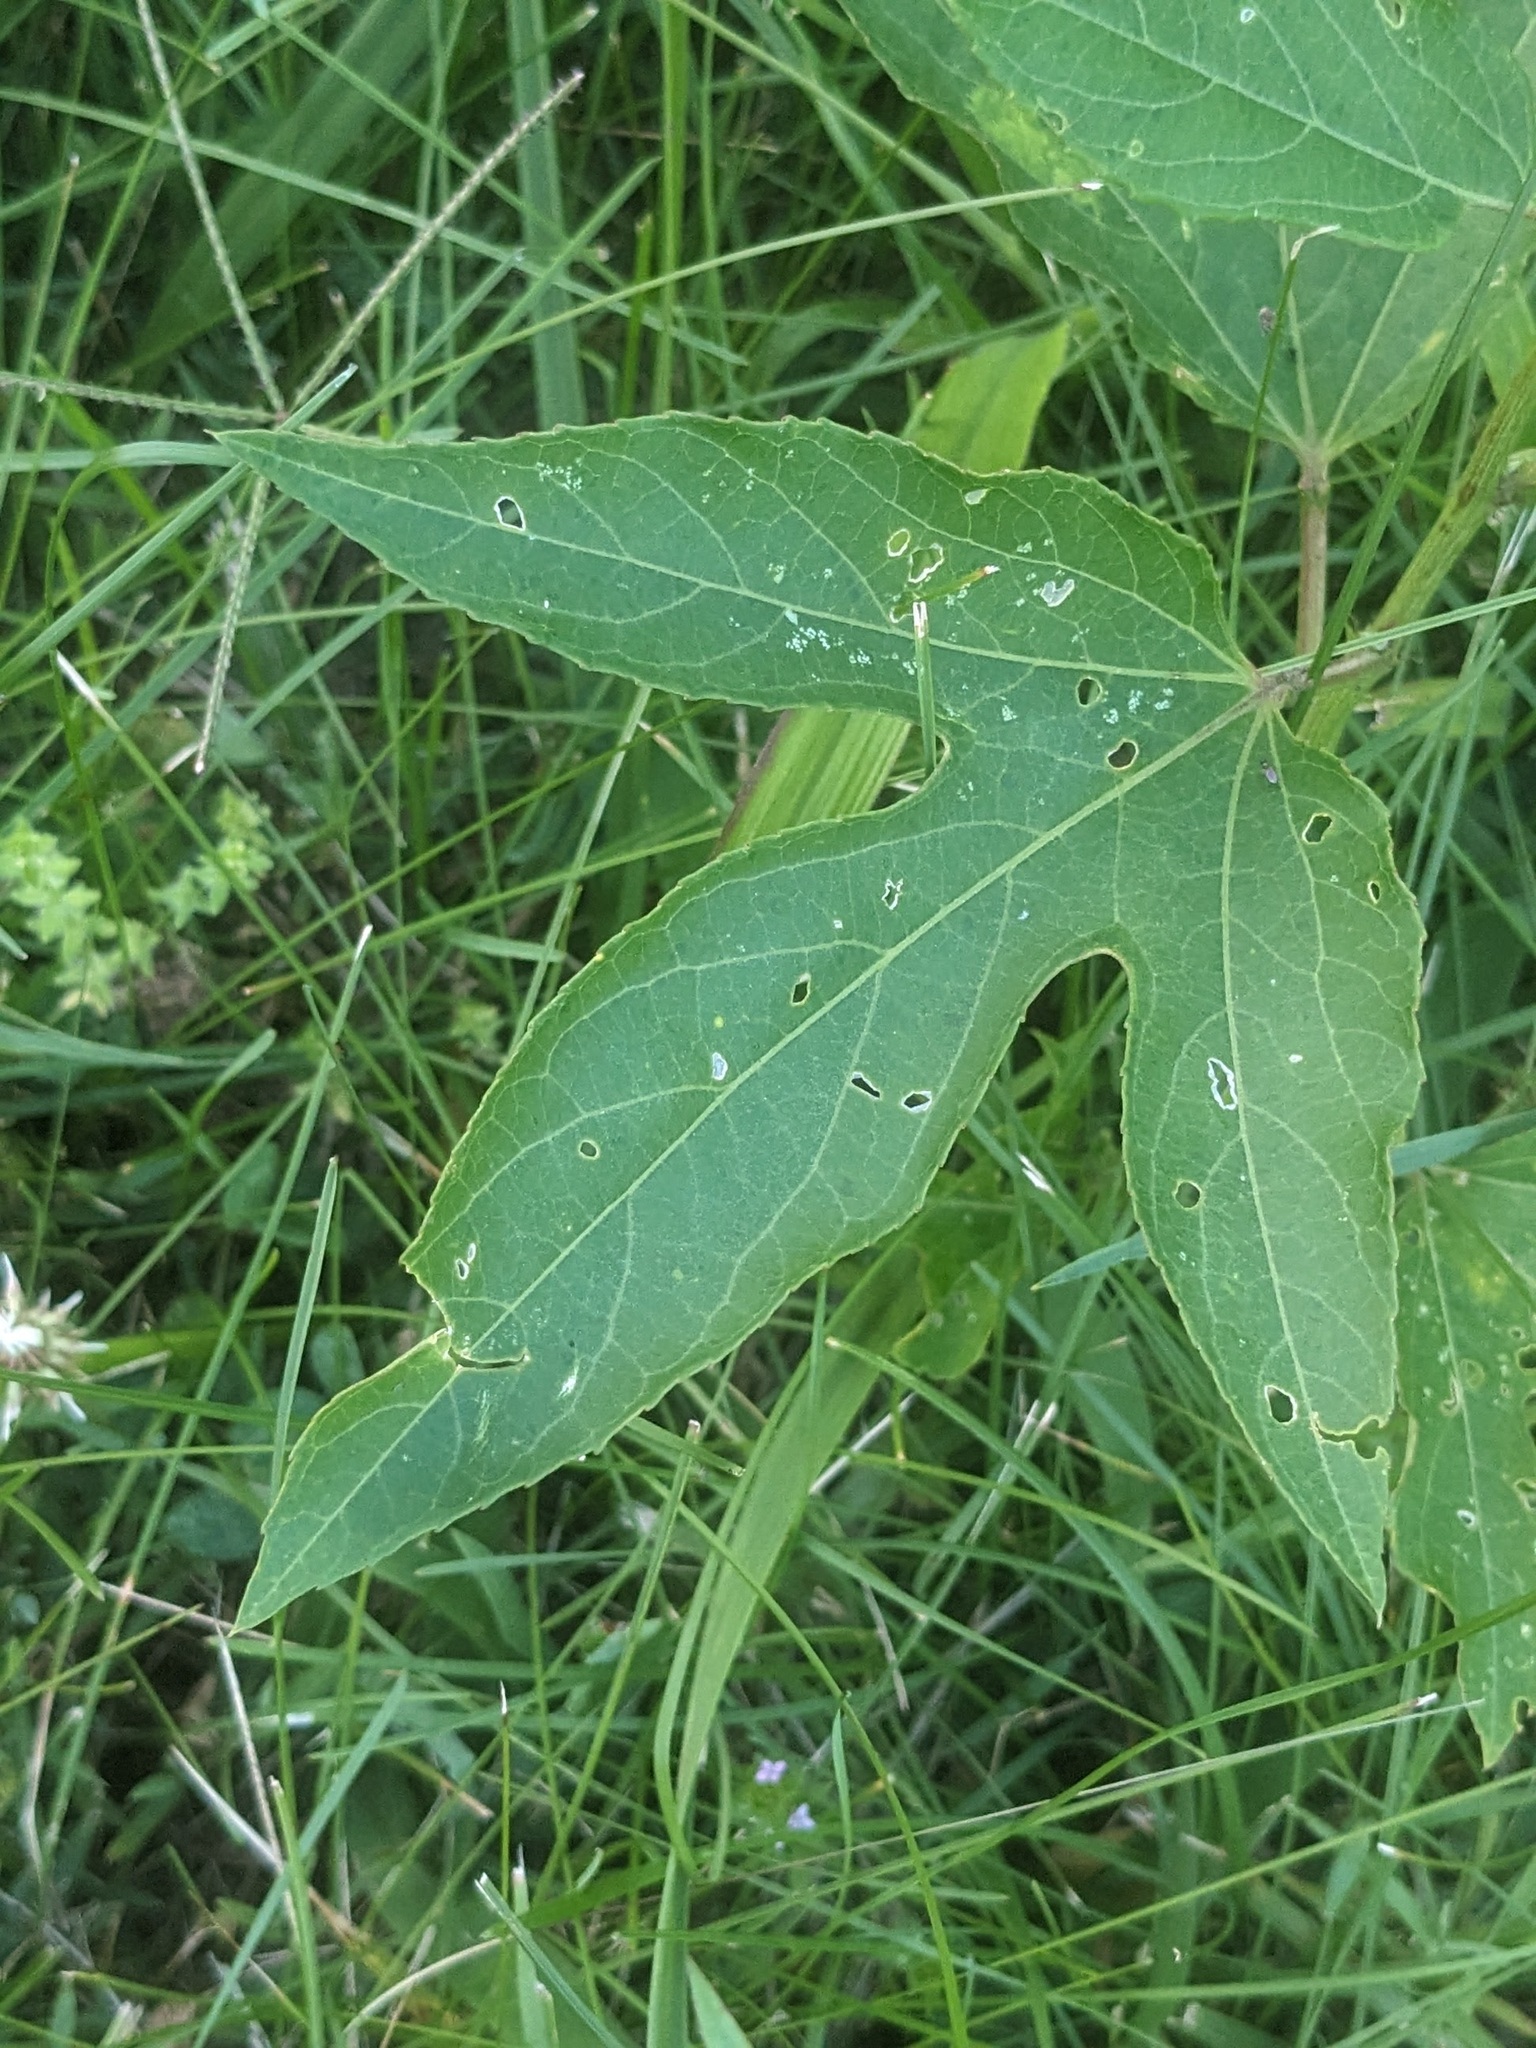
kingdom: Plantae
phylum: Tracheophyta
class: Magnoliopsida
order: Malpighiales
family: Passifloraceae
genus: Passiflora
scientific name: Passiflora incarnata
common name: Apricot-vine
